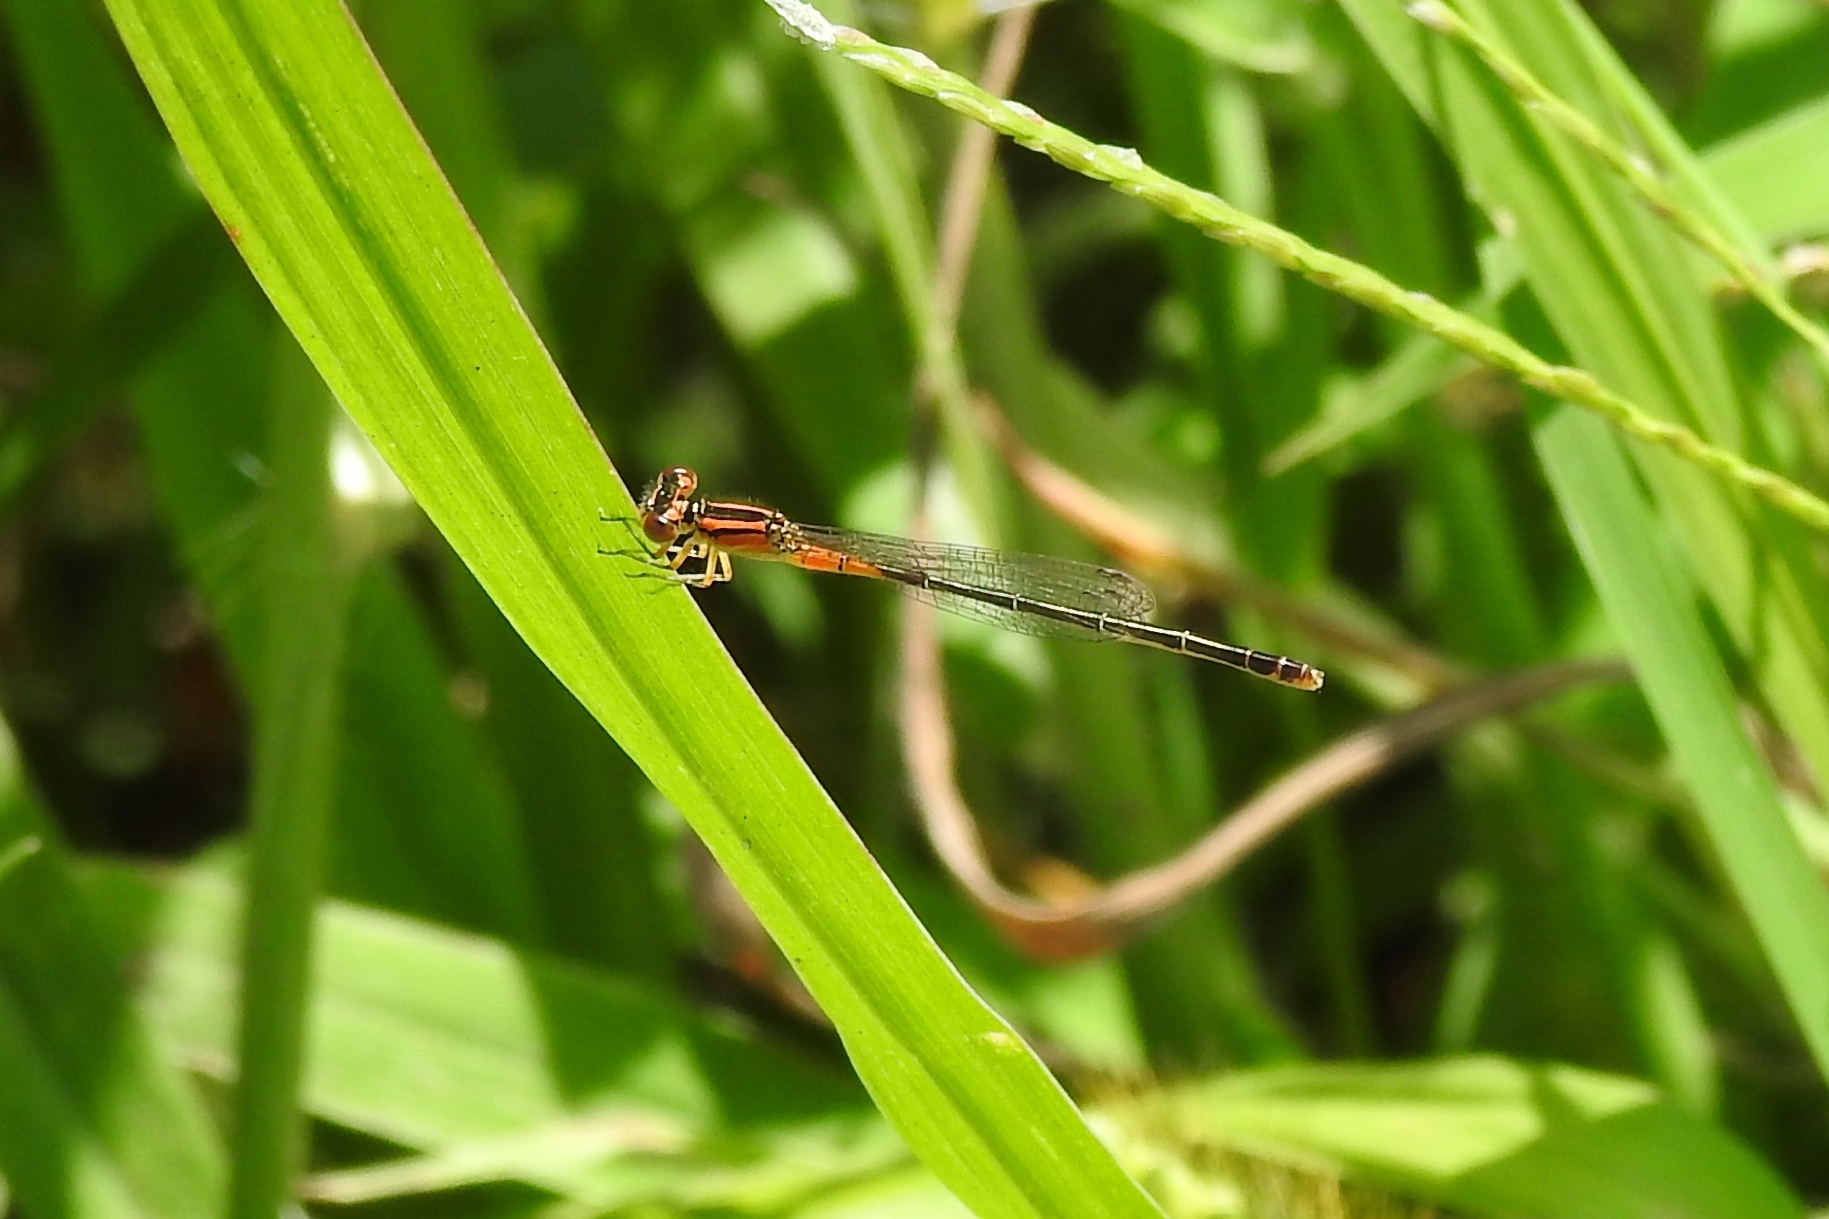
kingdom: Animalia
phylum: Arthropoda
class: Insecta
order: Odonata
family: Coenagrionidae
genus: Ischnura
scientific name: Ischnura verticalis
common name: Eastern forktail
